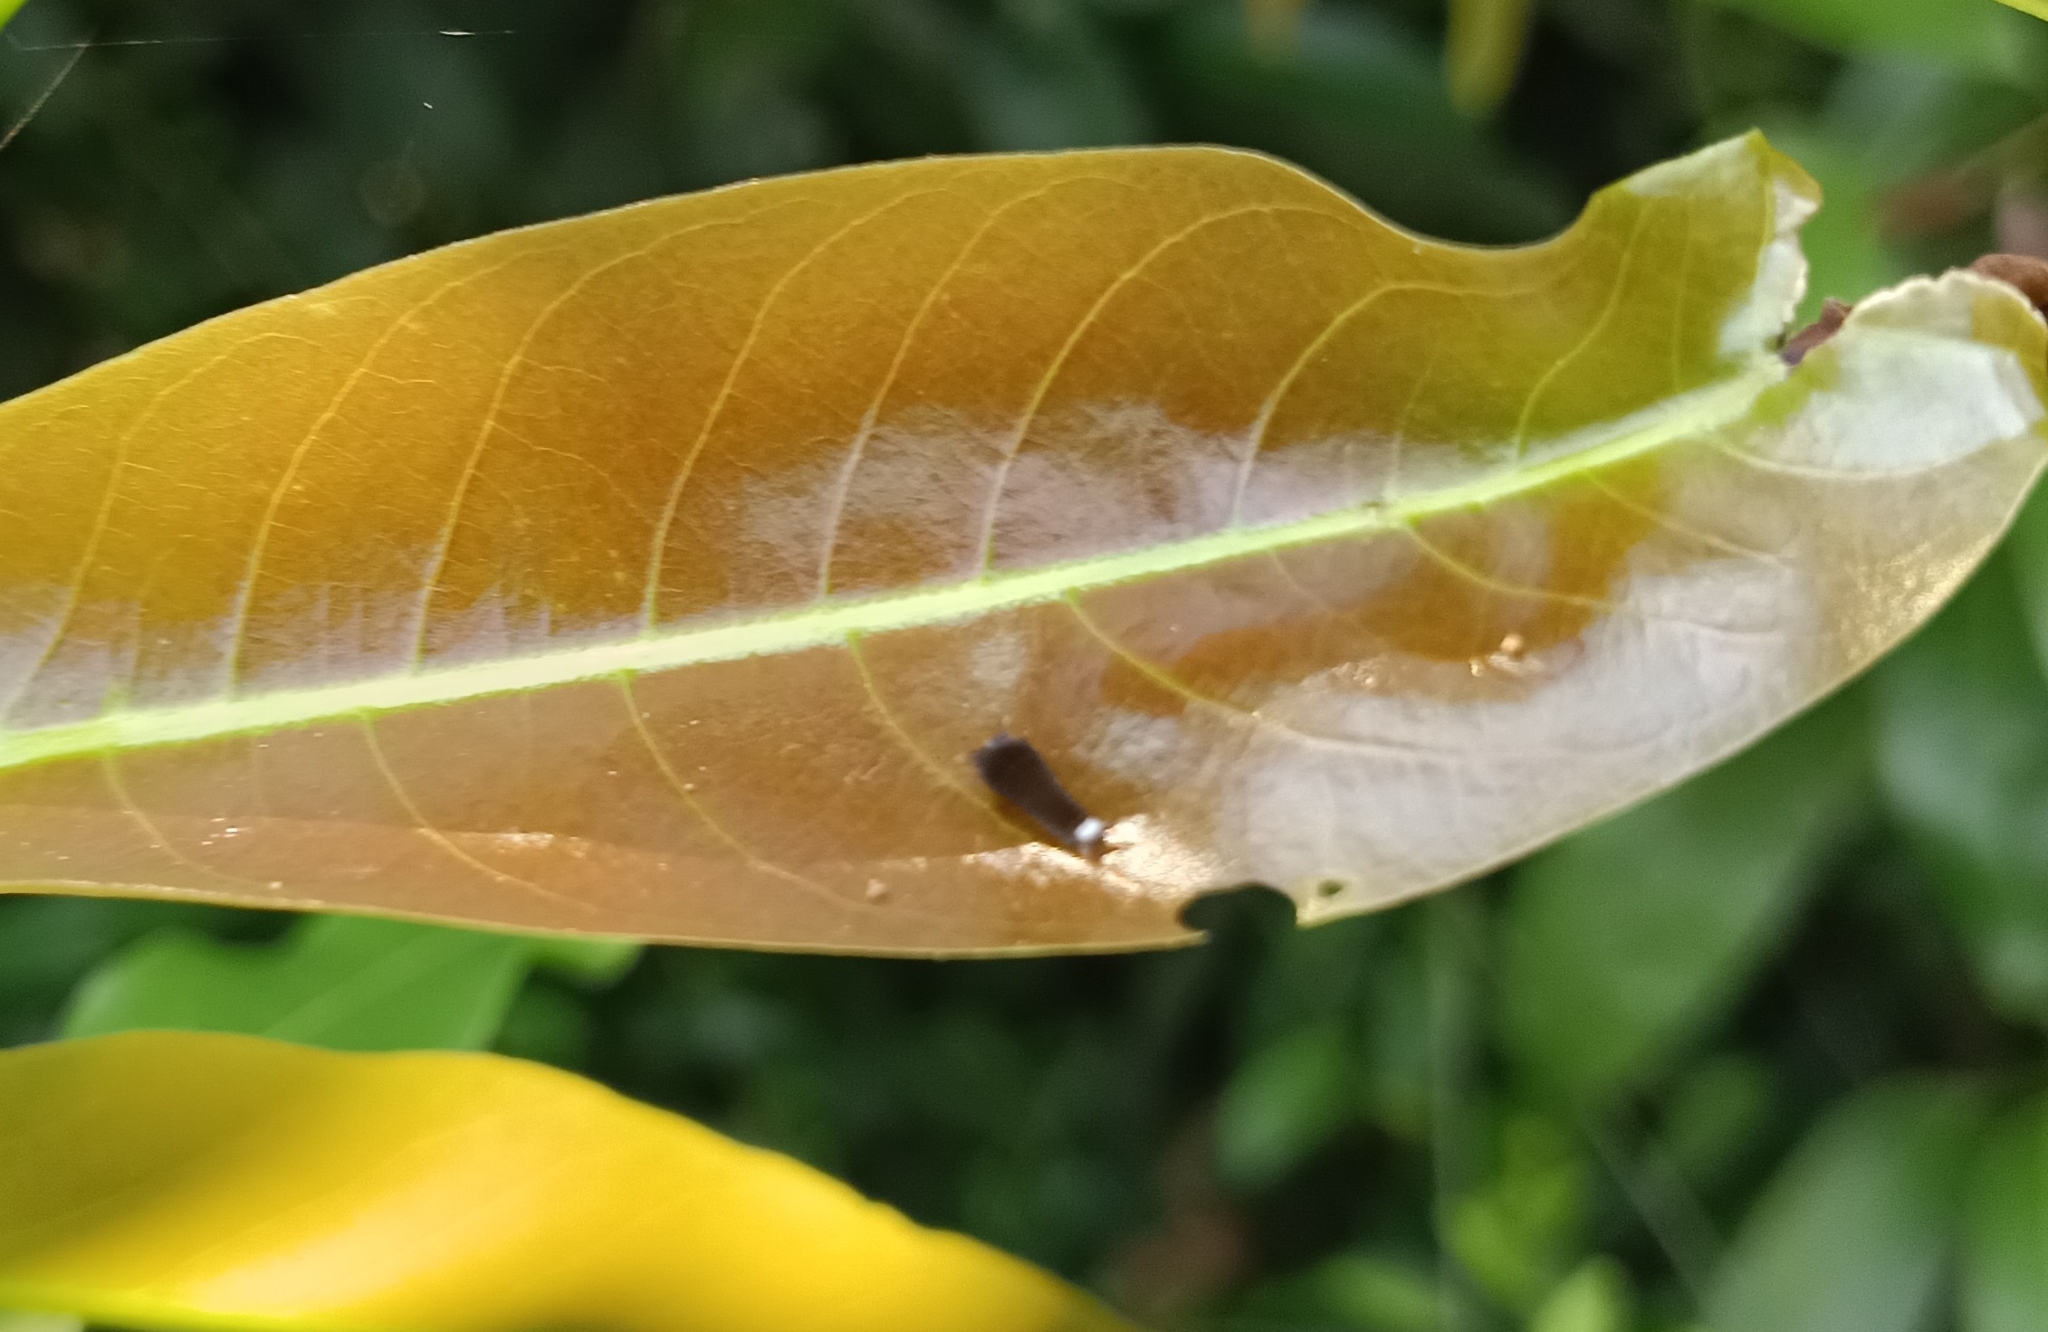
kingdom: Animalia
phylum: Arthropoda
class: Insecta
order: Lepidoptera
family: Papilionidae
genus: Graphium
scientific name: Graphium doson
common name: Common jay
